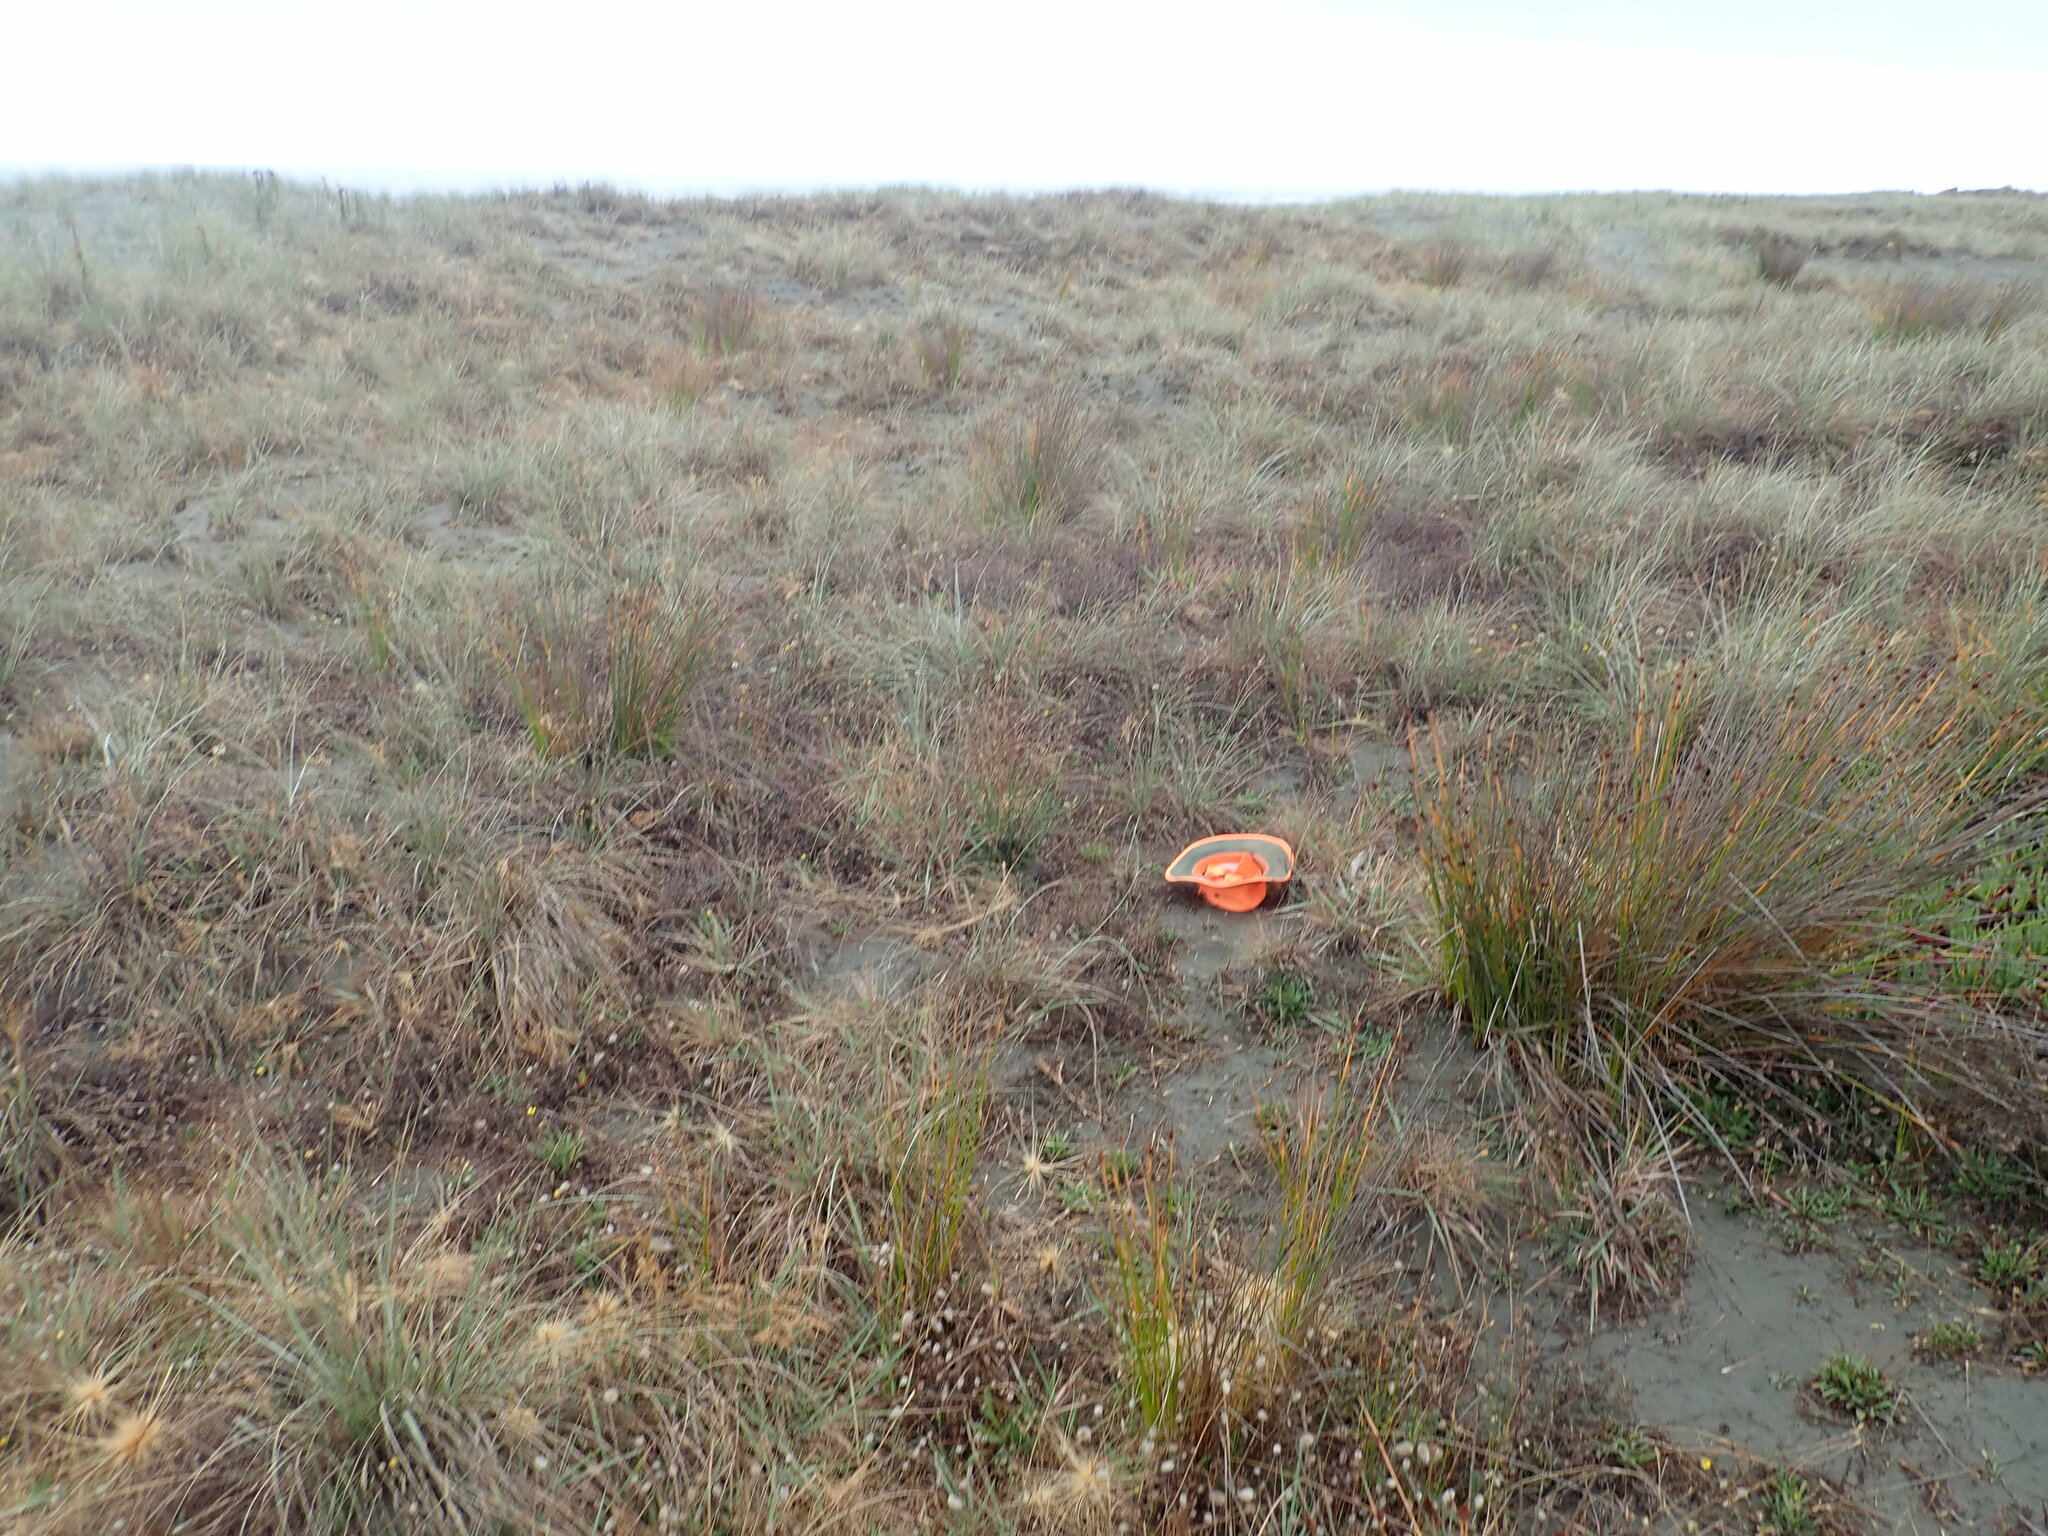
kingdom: Plantae
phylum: Tracheophyta
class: Liliopsida
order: Poales
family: Poaceae
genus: Lachnagrostis
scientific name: Lachnagrostis billardierei
